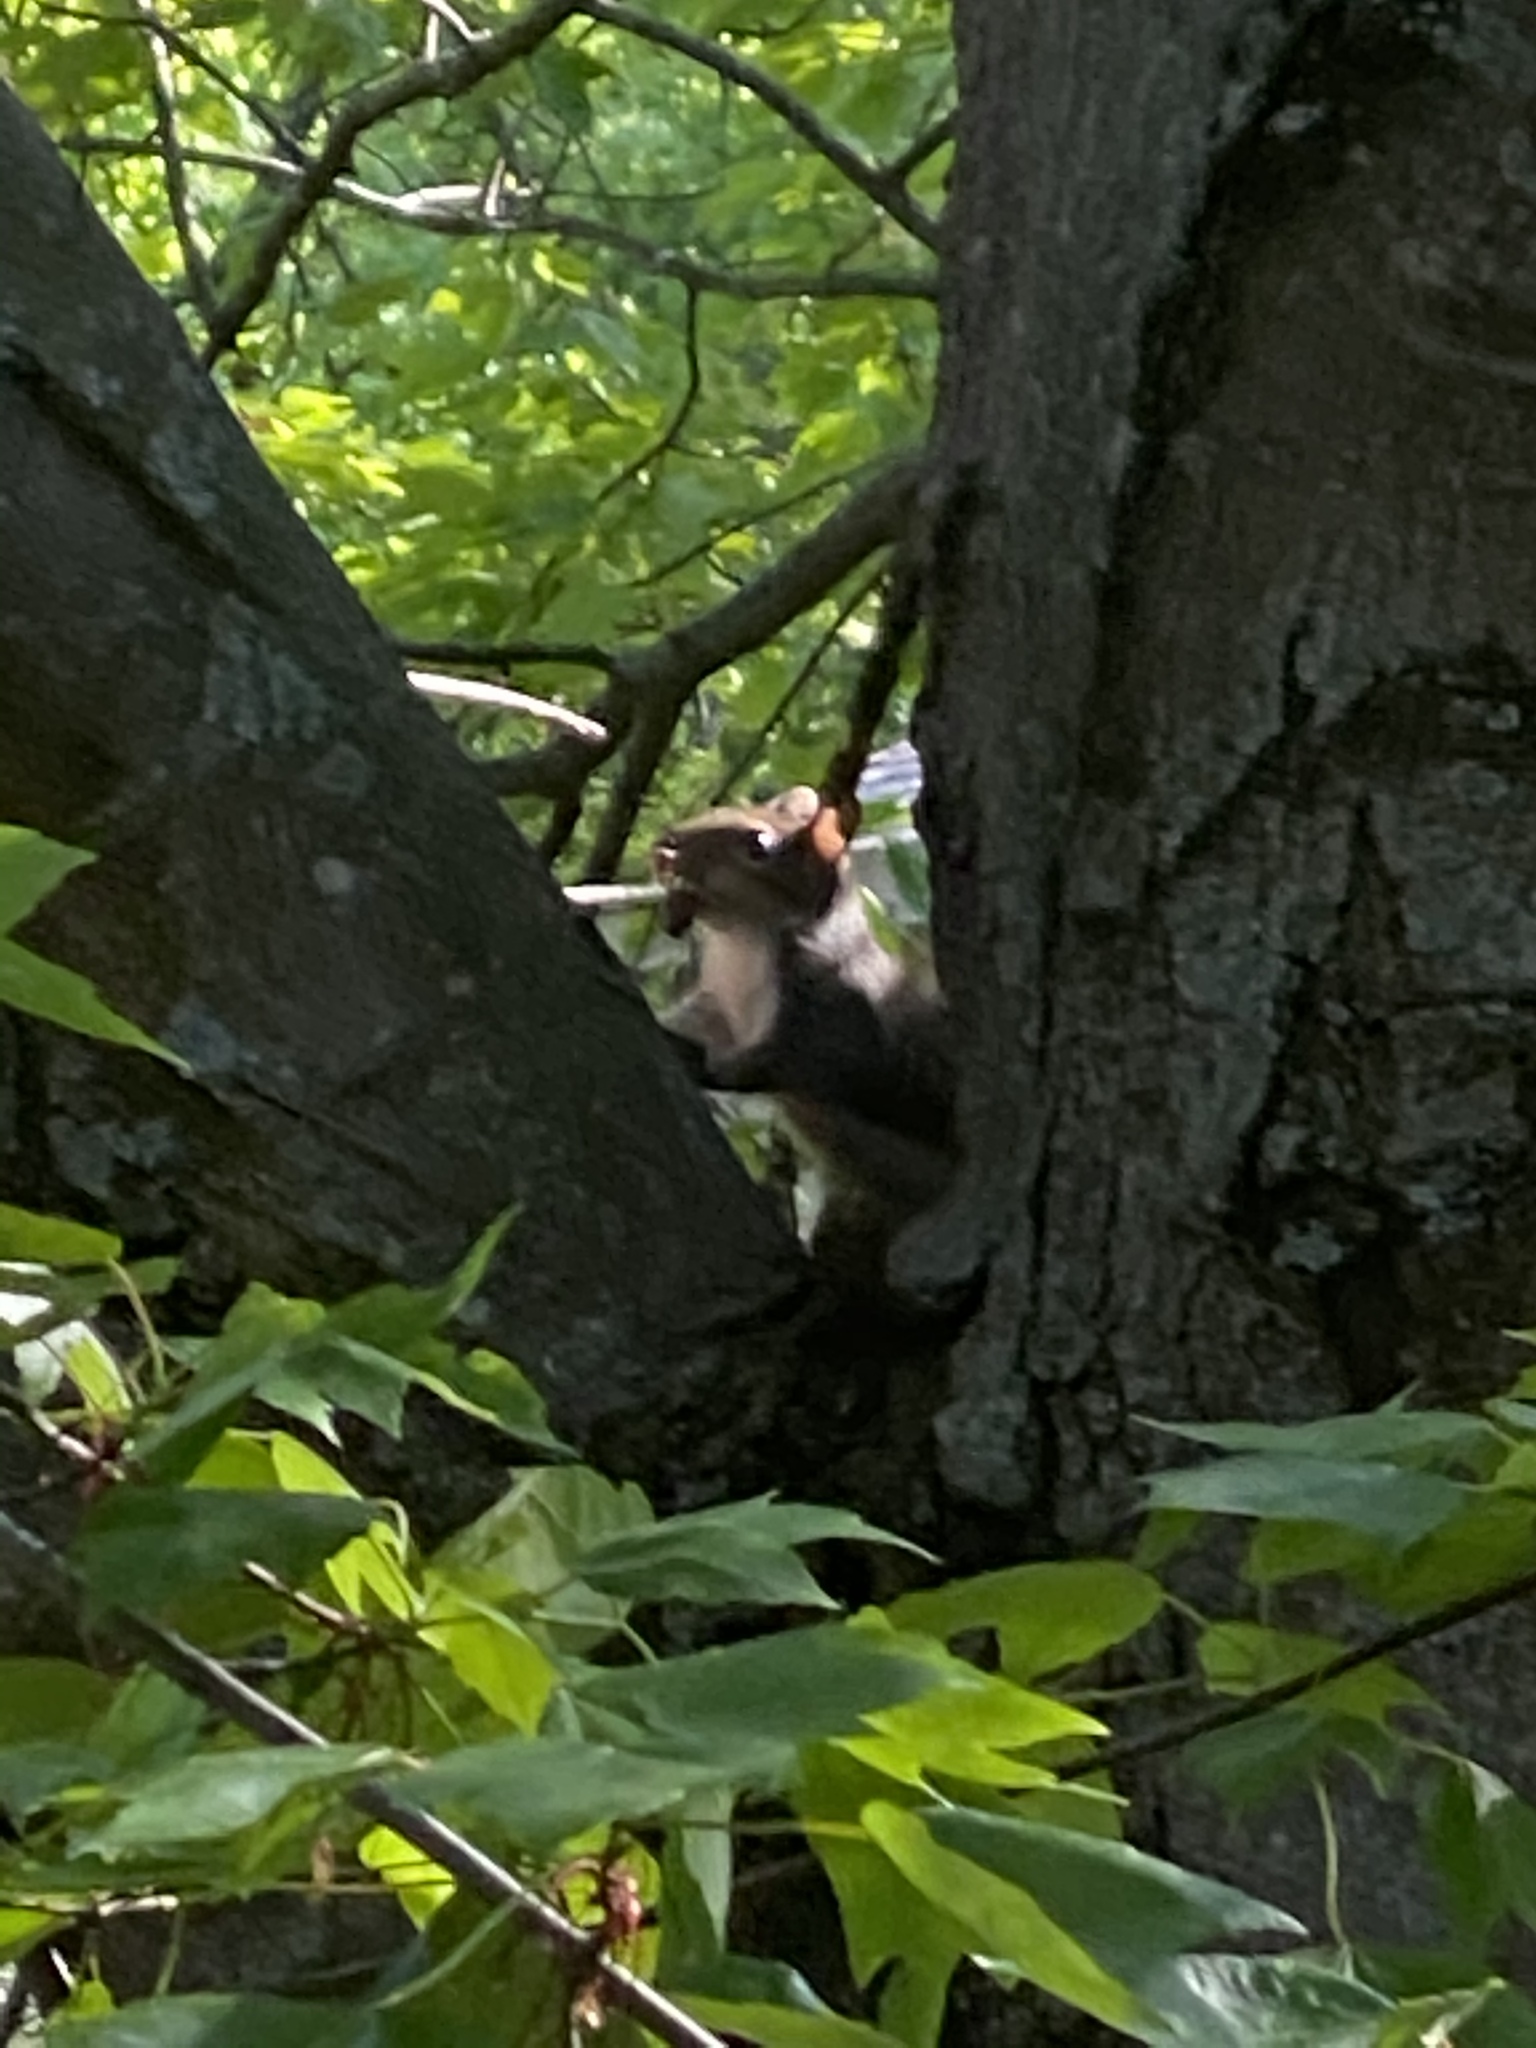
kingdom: Animalia
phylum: Chordata
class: Mammalia
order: Rodentia
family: Sciuridae
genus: Sciurus
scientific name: Sciurus carolinensis
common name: Eastern gray squirrel
